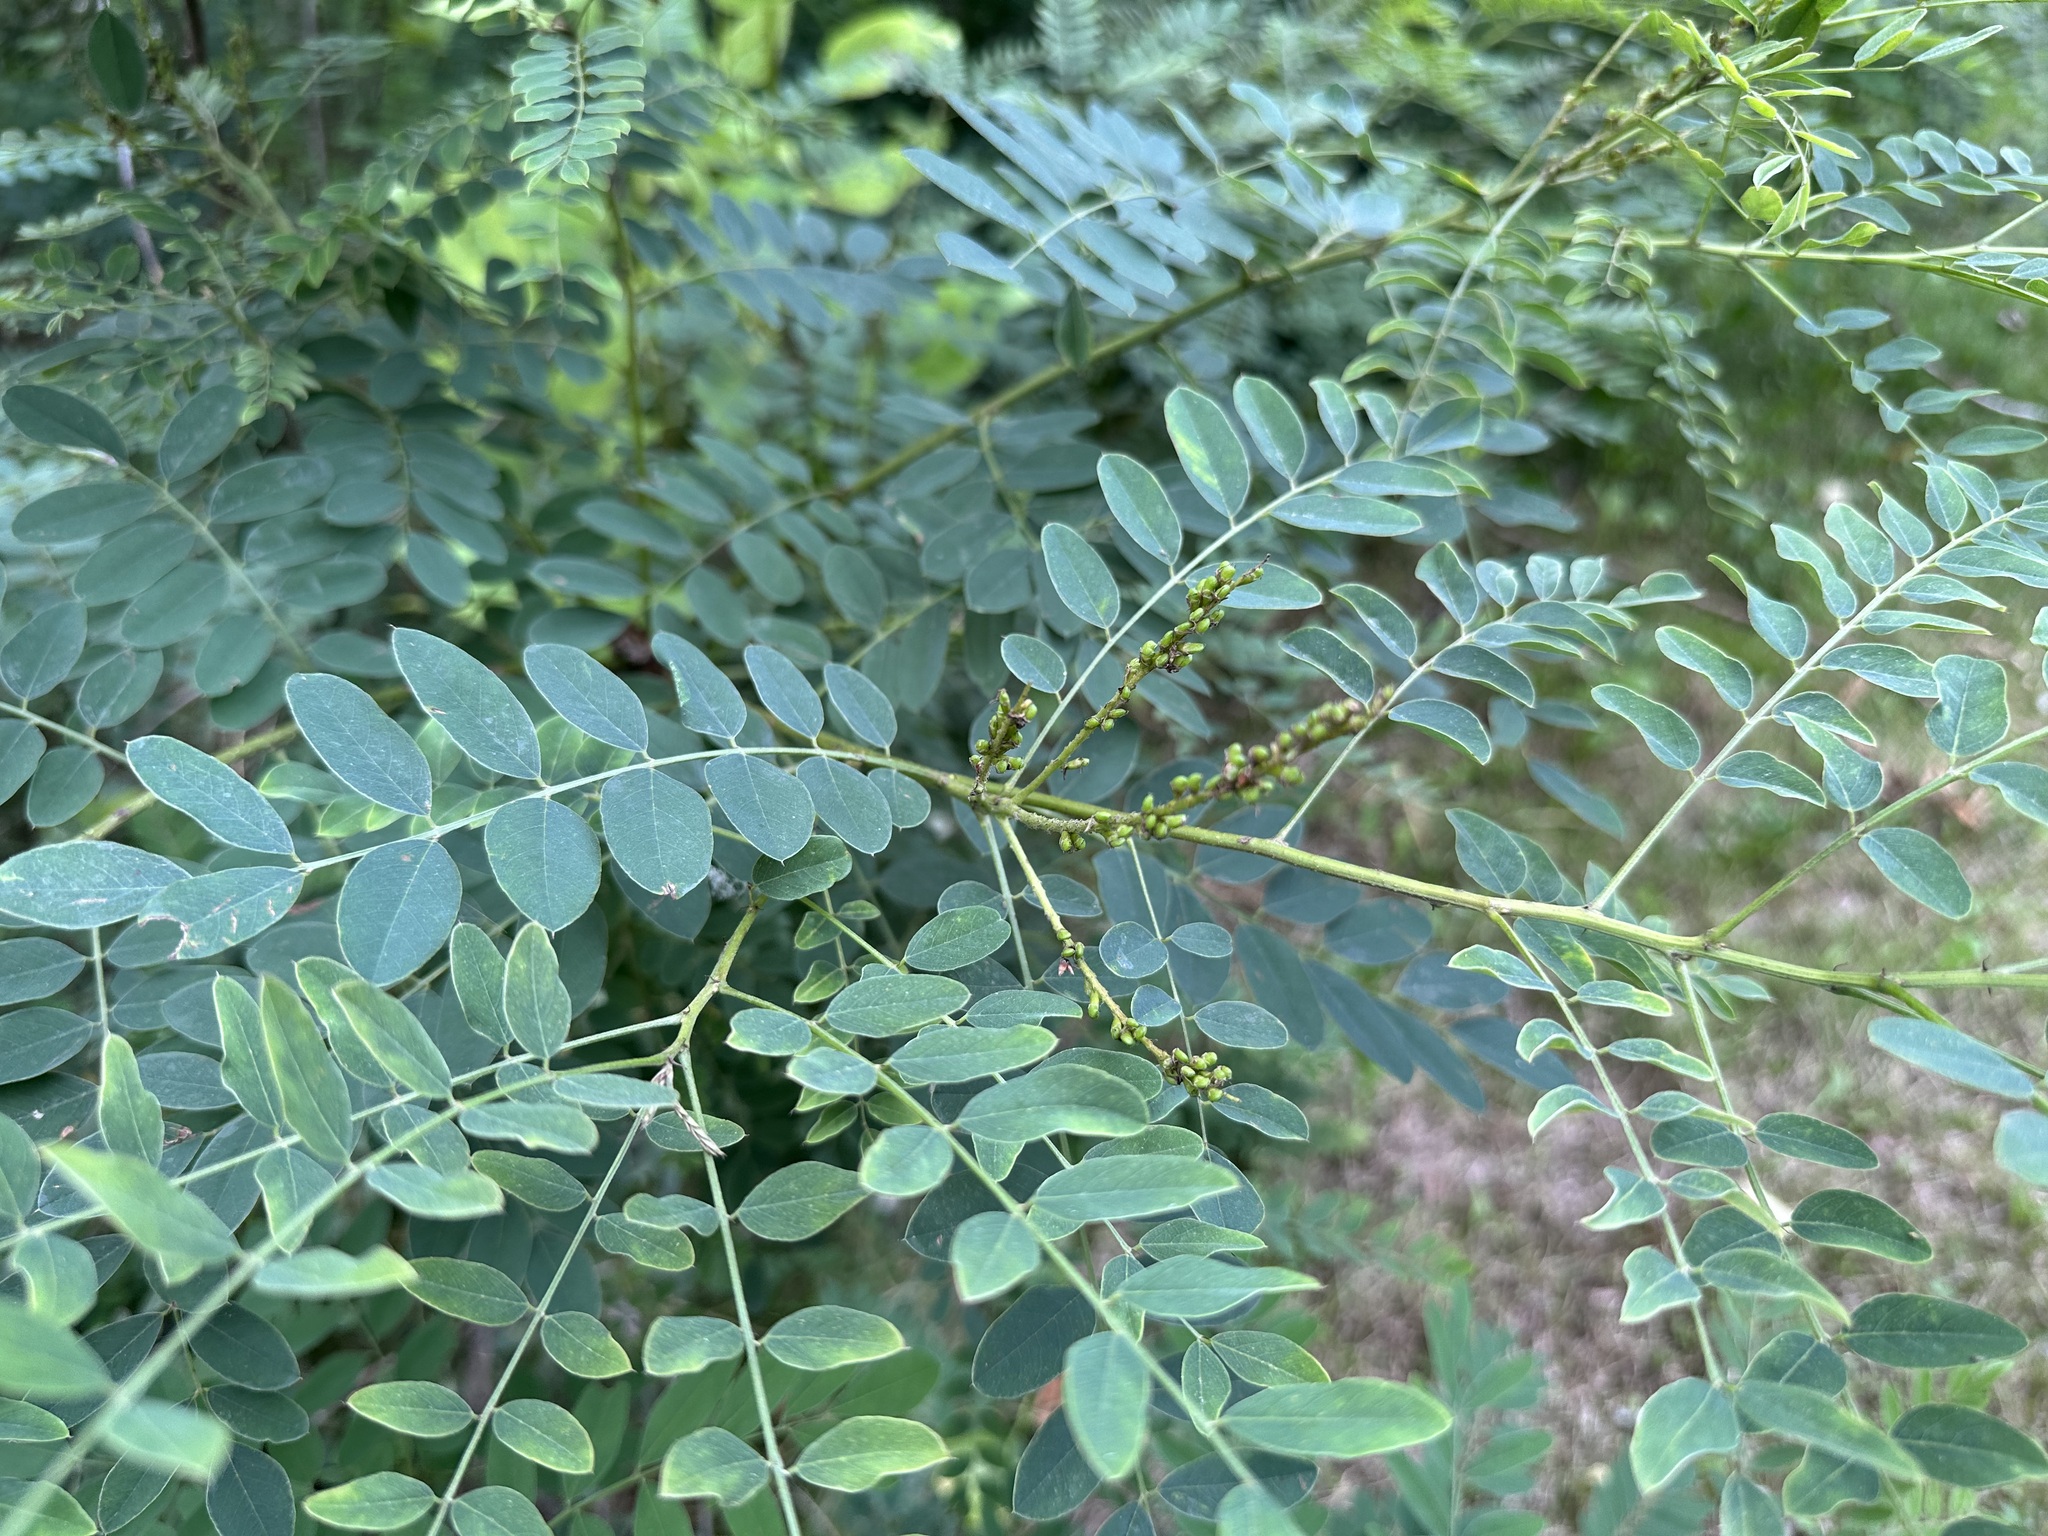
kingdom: Plantae
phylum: Tracheophyta
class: Magnoliopsida
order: Fabales
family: Fabaceae
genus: Amorpha
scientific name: Amorpha fruticosa
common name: False indigo
